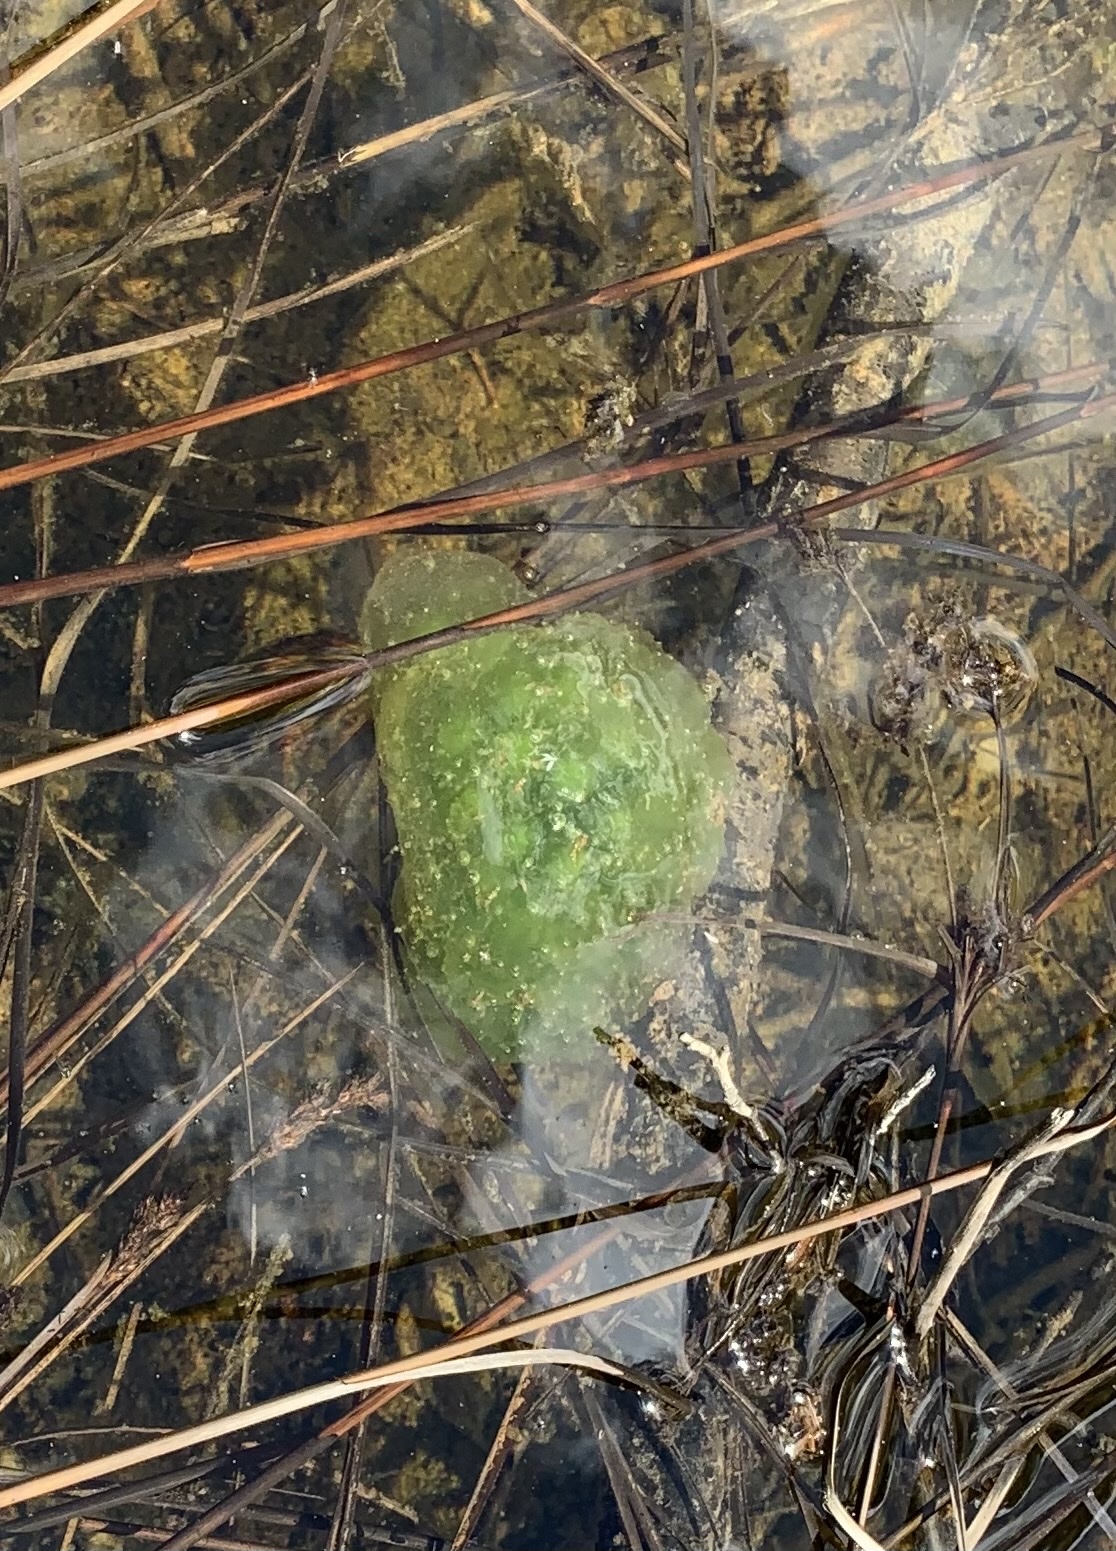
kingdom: Animalia
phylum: Chordata
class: Amphibia
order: Caudata
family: Ambystomatidae
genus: Ambystoma
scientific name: Ambystoma maculatum
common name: Spotted salamander
